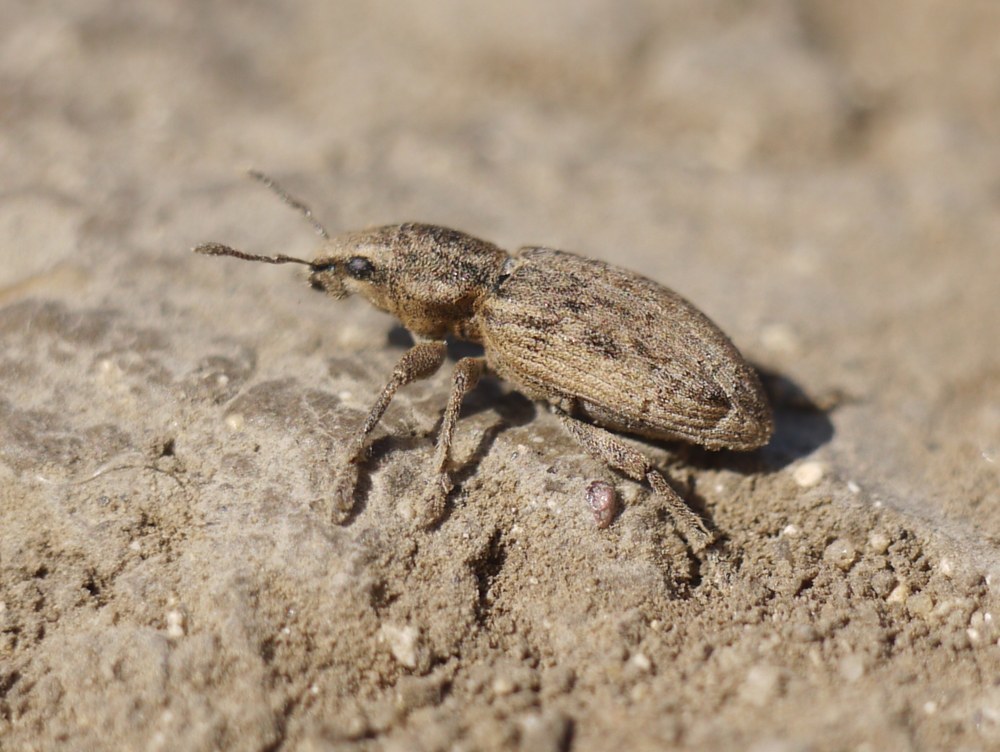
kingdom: Animalia
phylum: Arthropoda
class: Insecta
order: Coleoptera
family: Curculionidae
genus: Tanymecus
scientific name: Tanymecus dilaticollis
